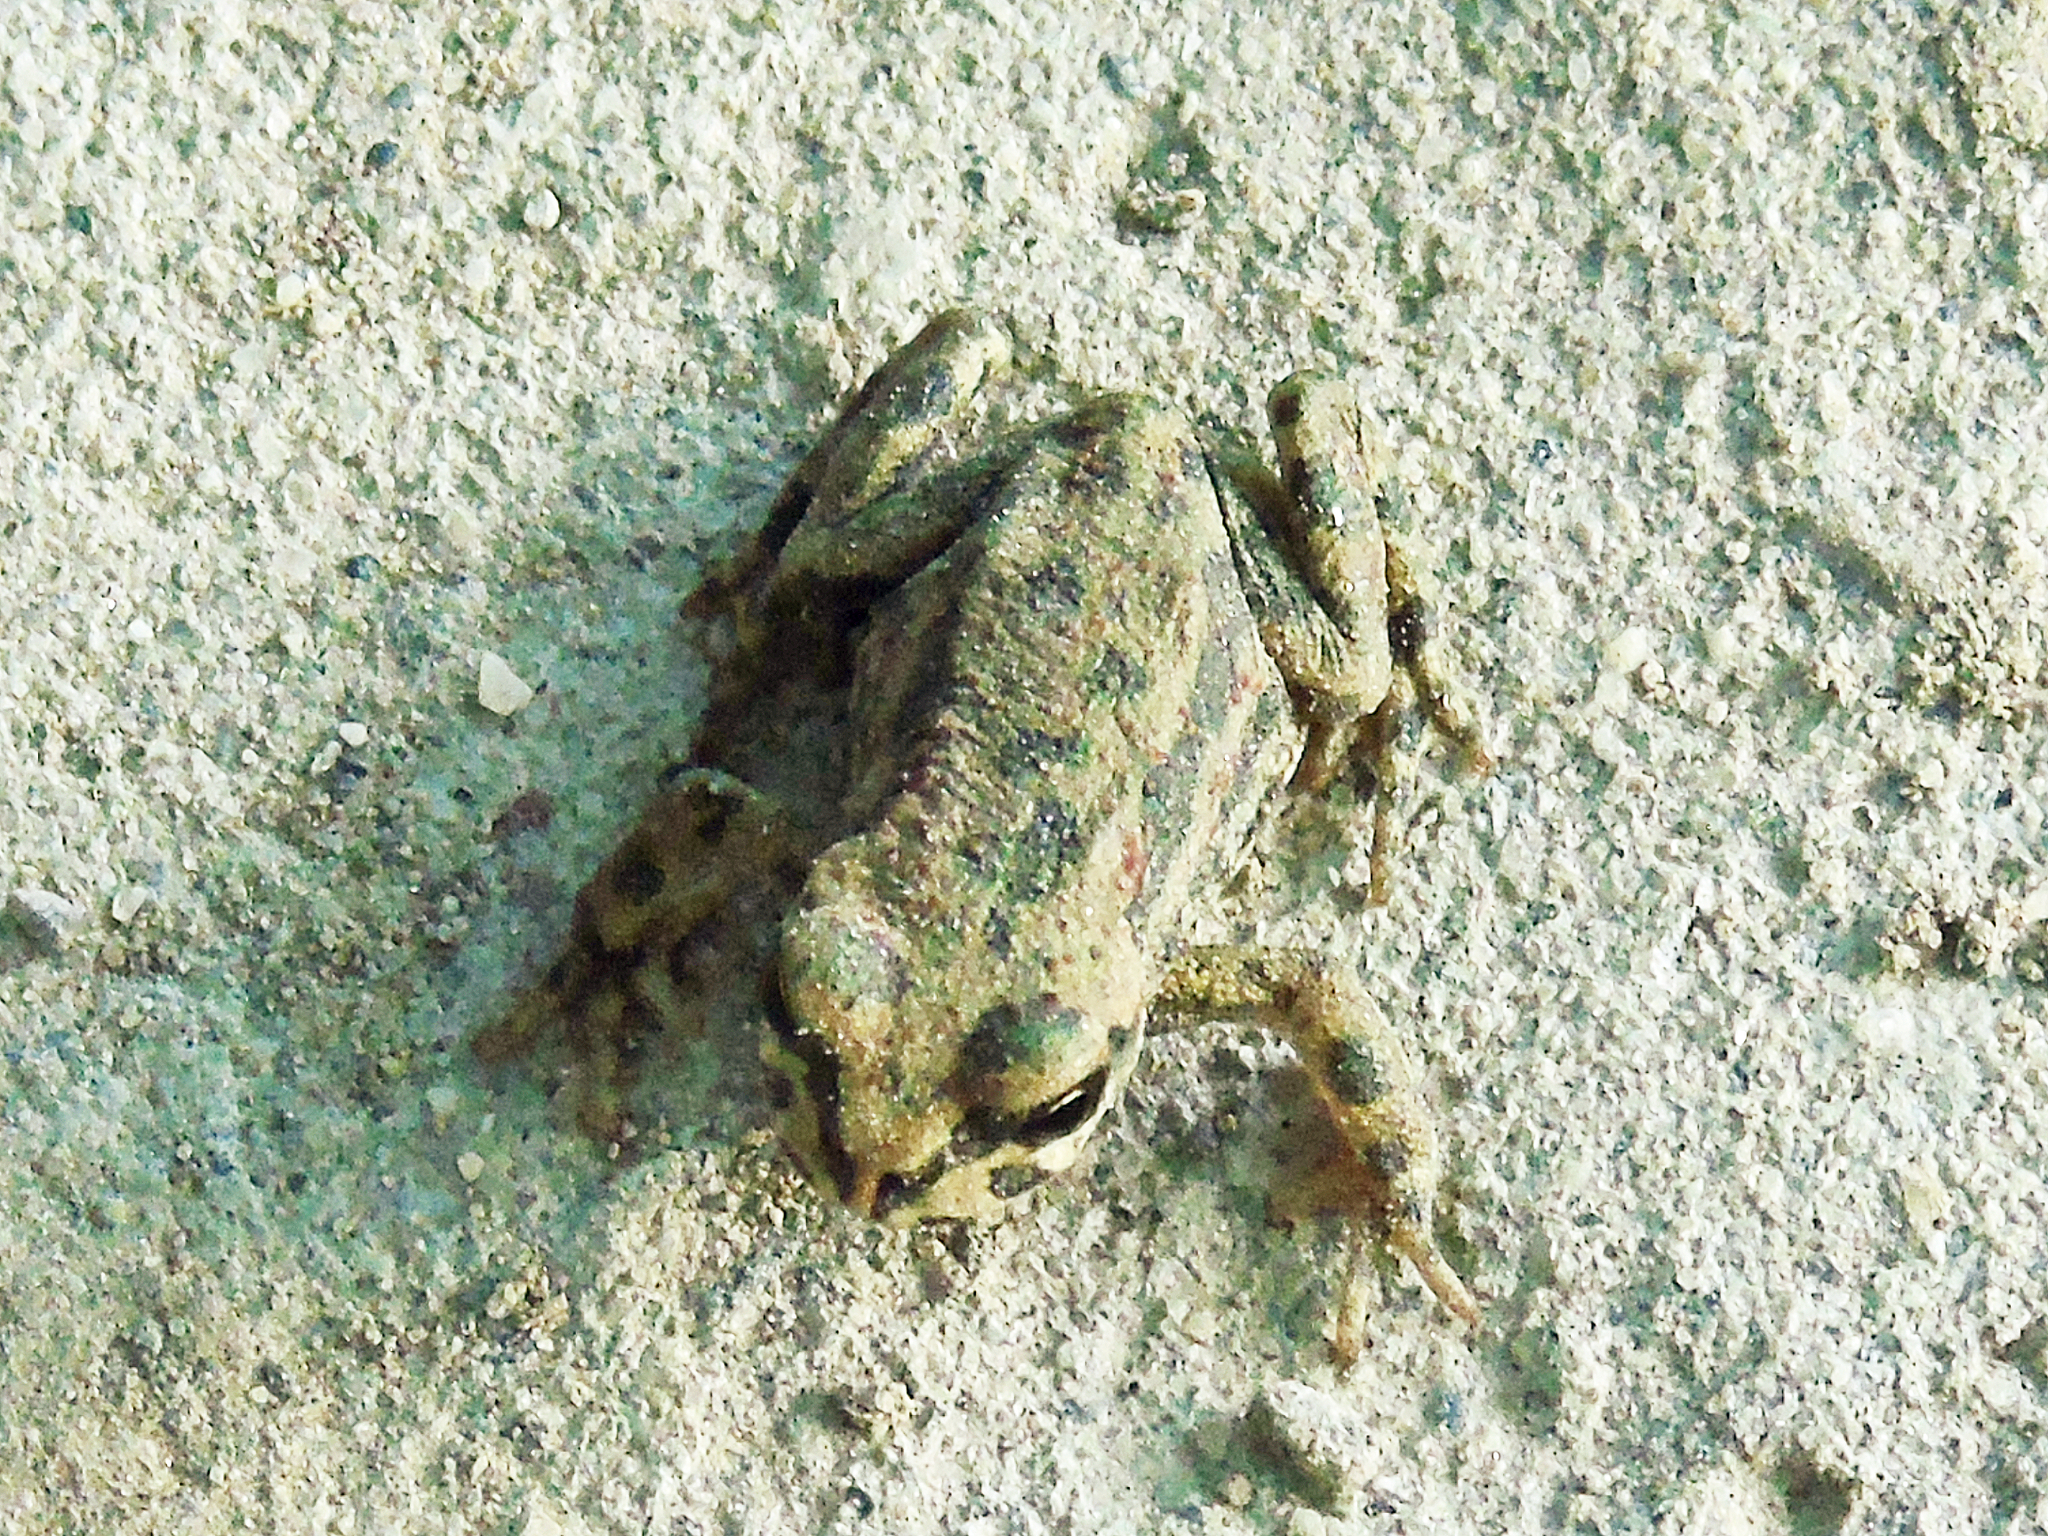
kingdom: Animalia
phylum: Chordata
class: Amphibia
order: Anura
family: Bufonidae
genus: Bufotes
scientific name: Bufotes latastii
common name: Ladakh toad
